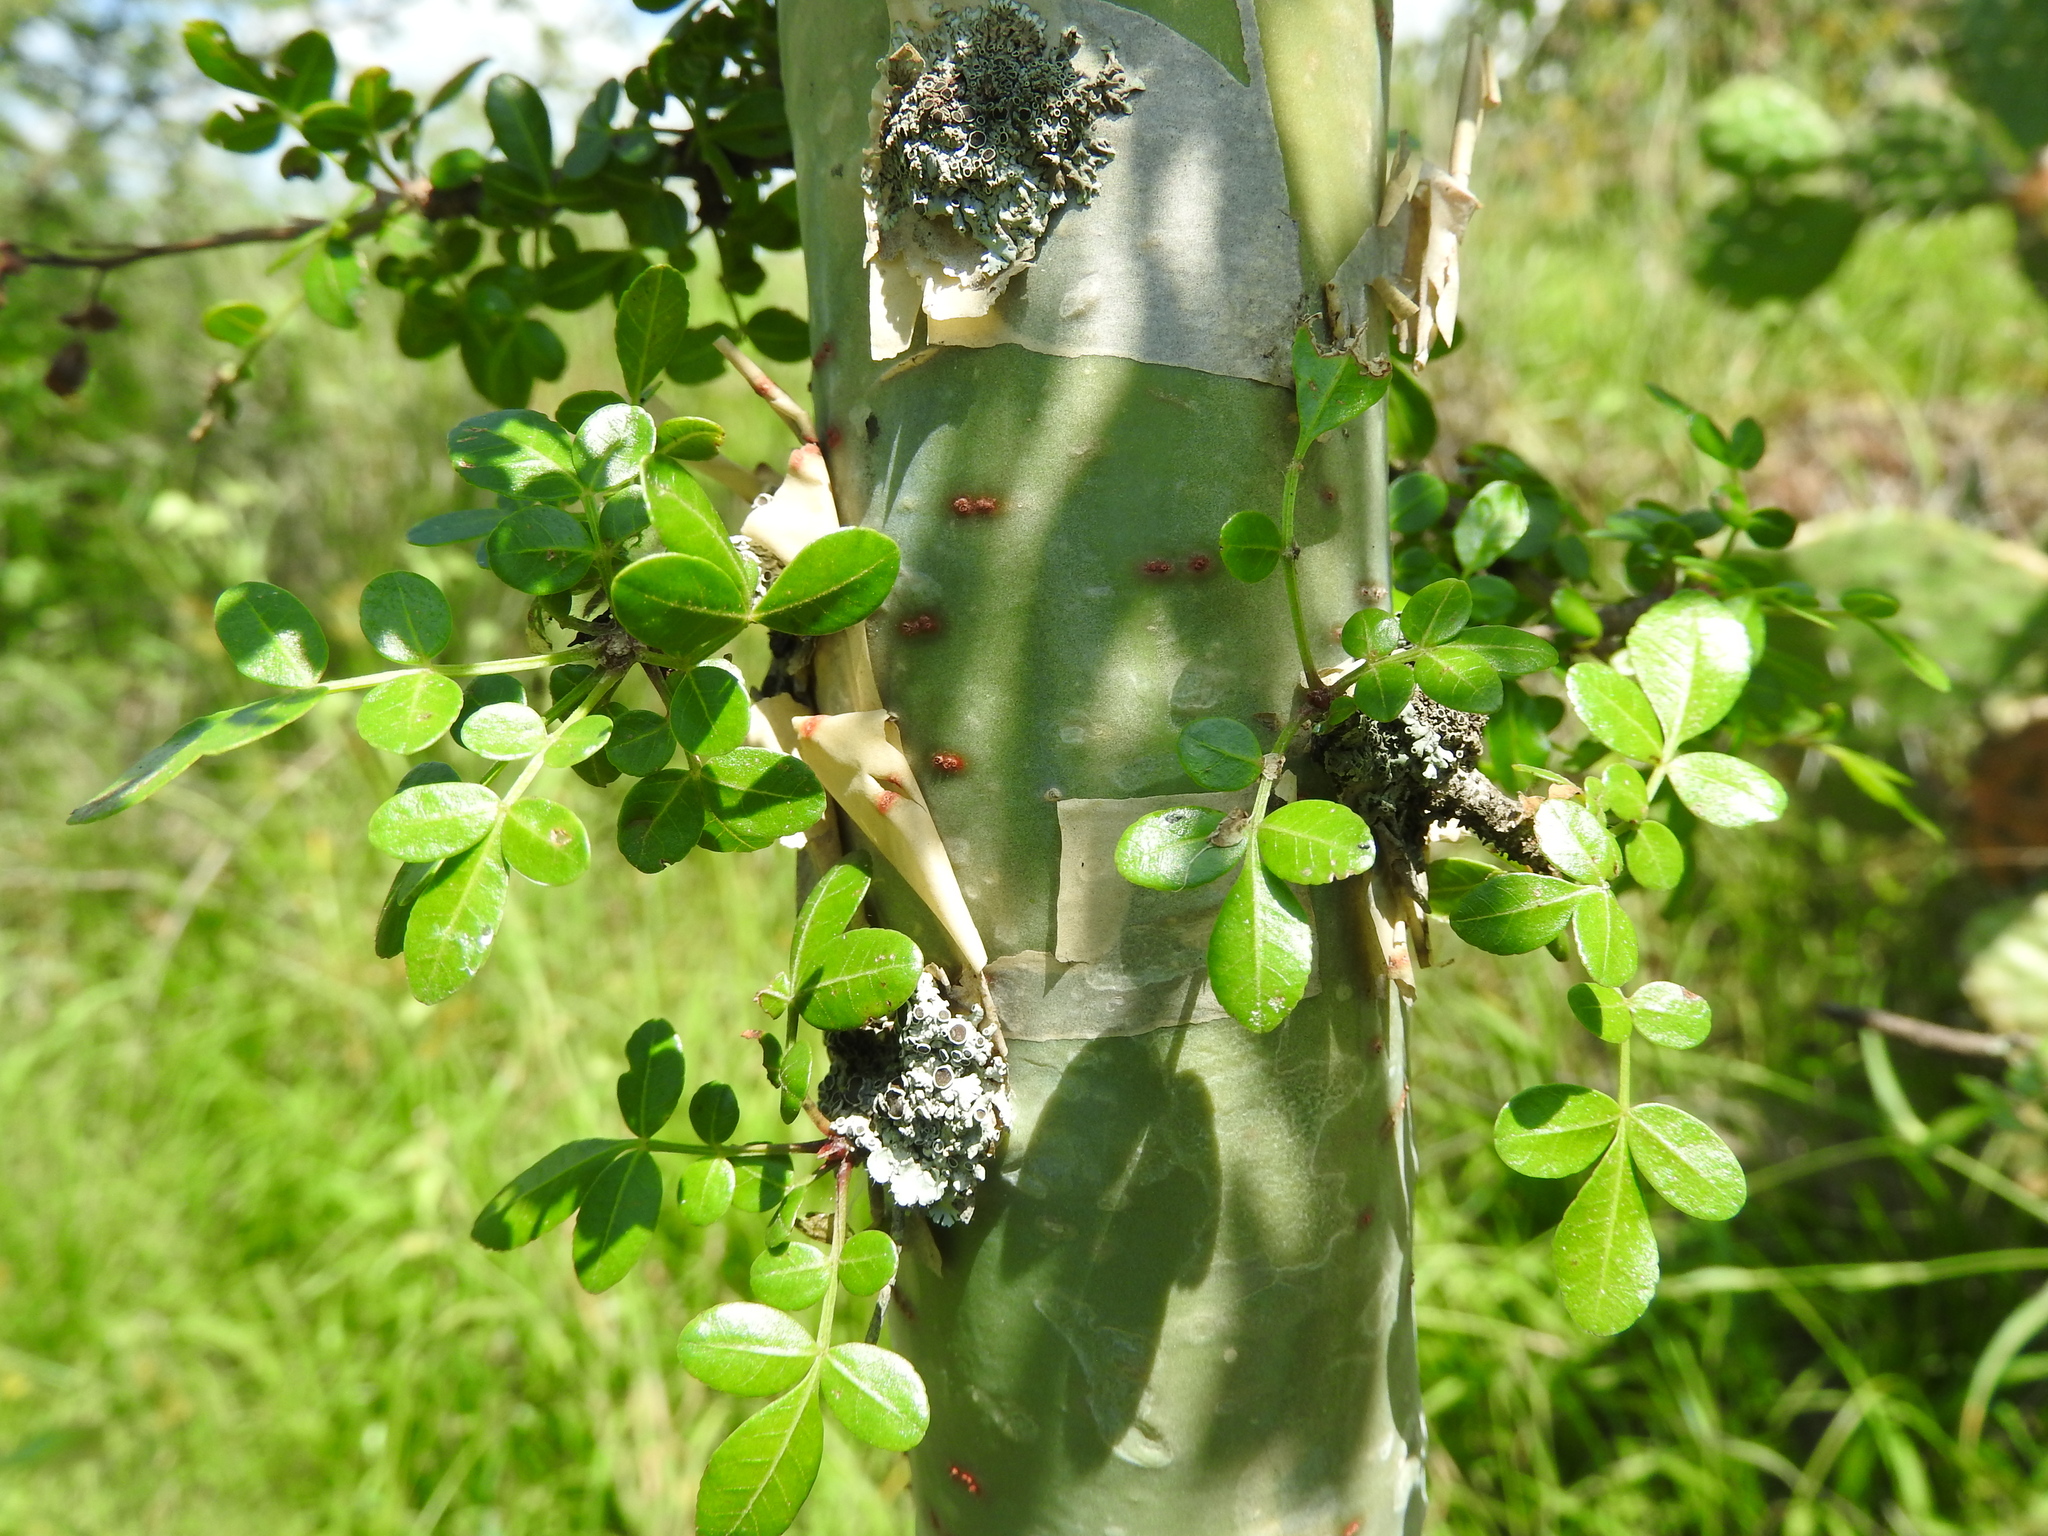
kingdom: Plantae
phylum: Tracheophyta
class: Magnoliopsida
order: Sapindales
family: Burseraceae
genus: Bursera
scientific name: Bursera fagaroides
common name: Elephant tree
